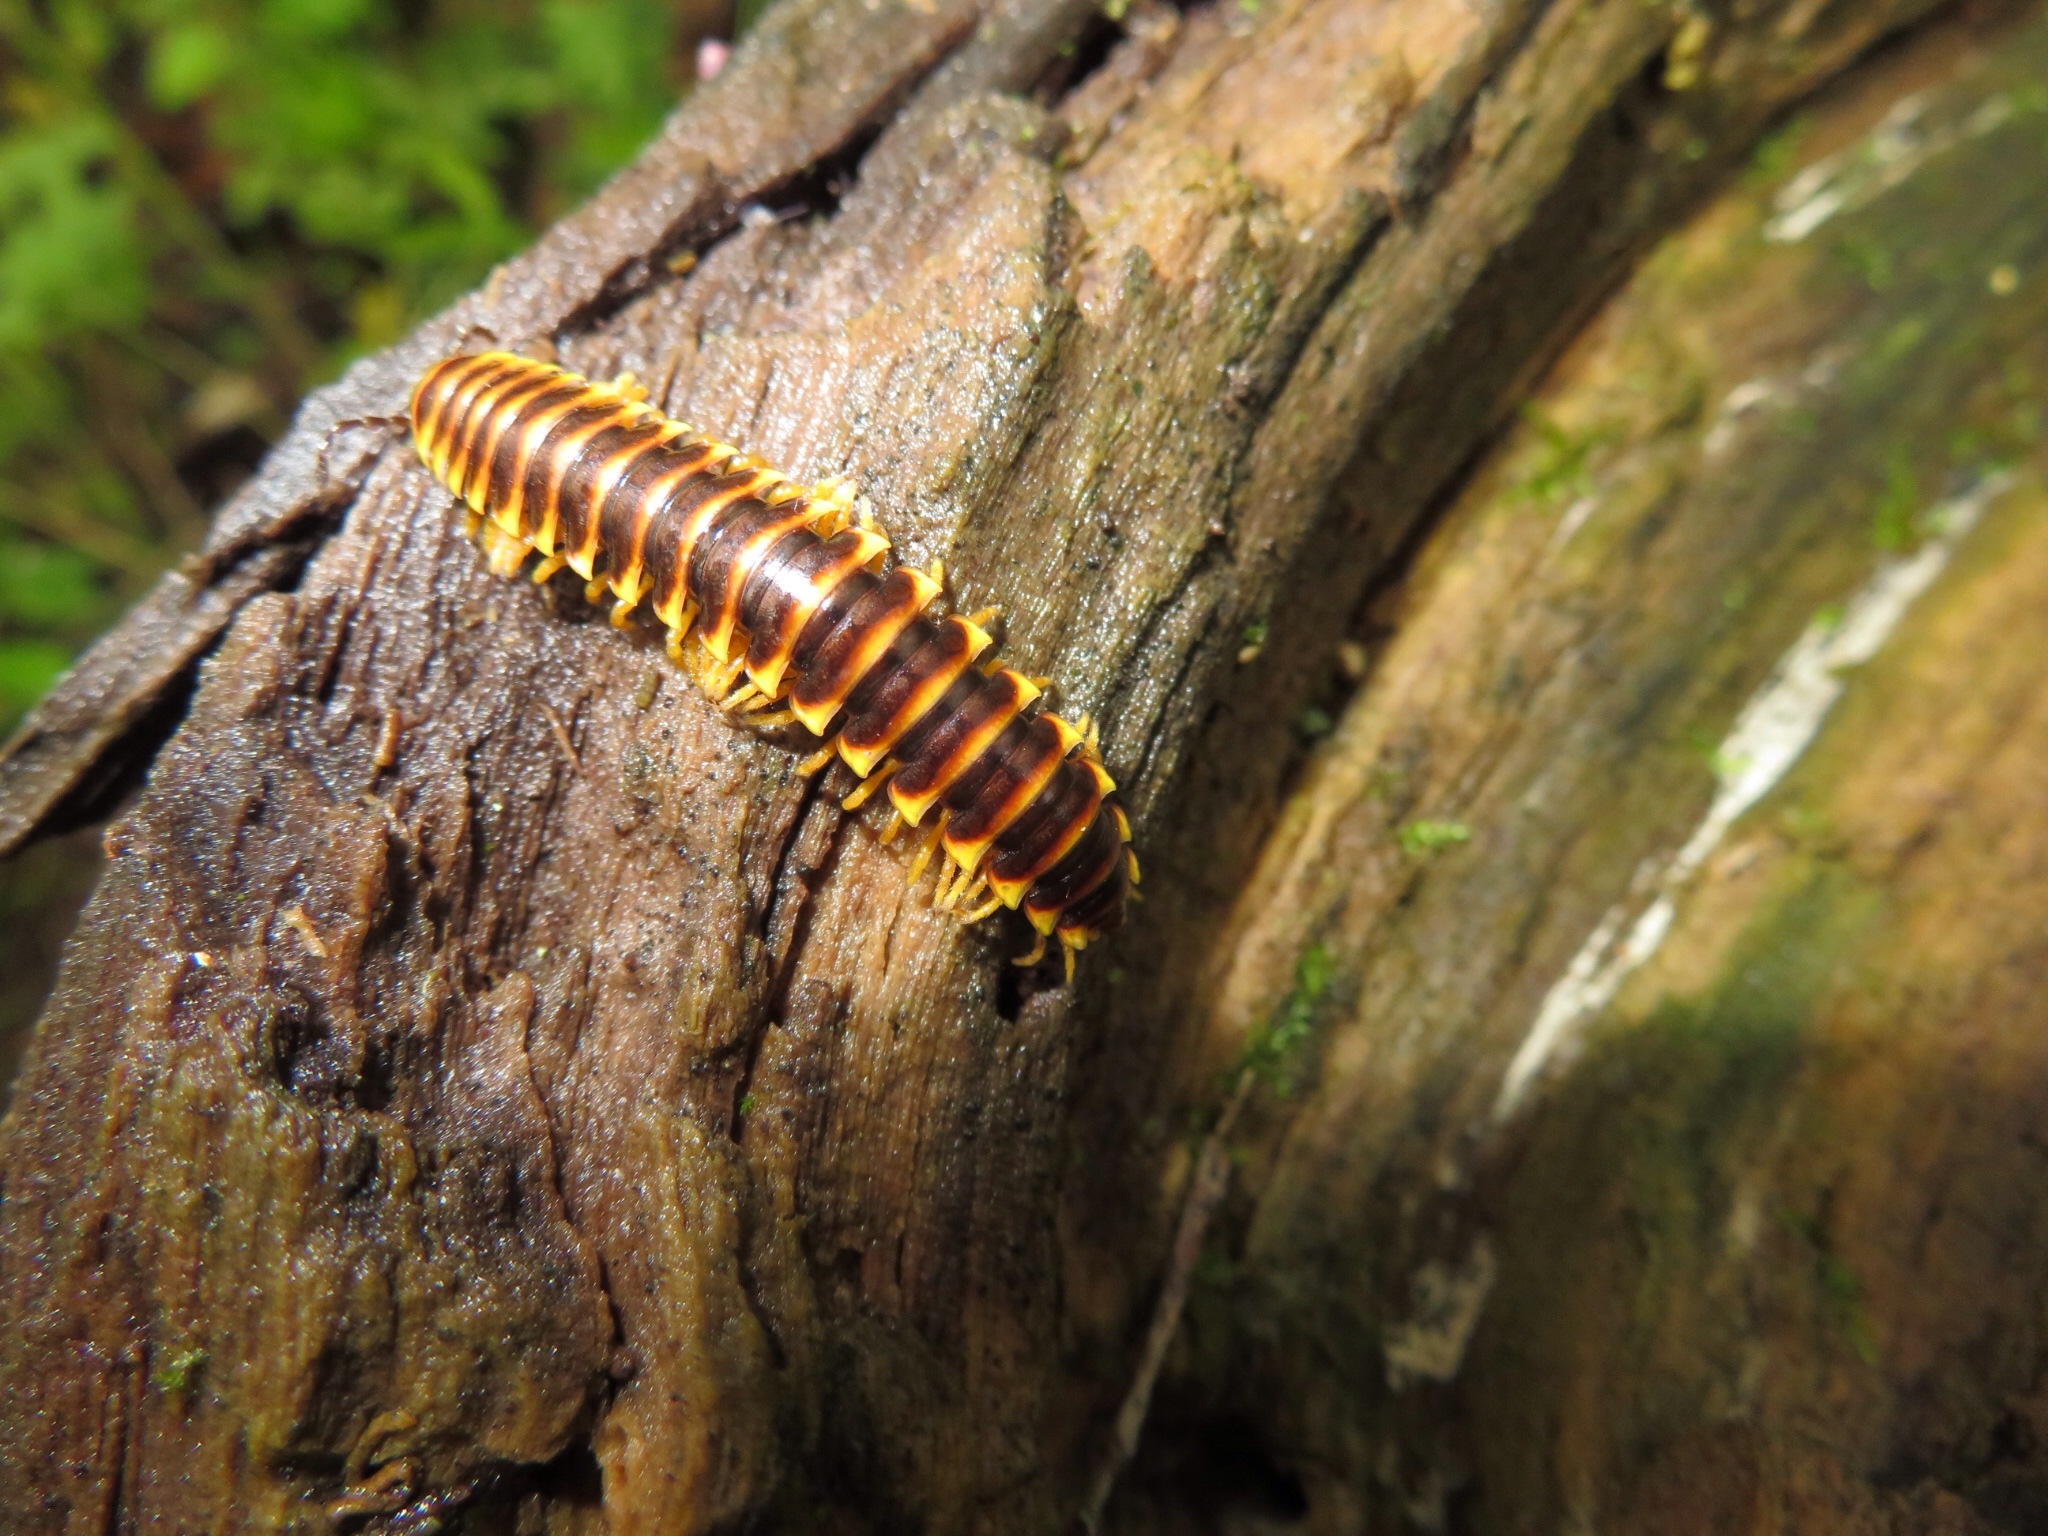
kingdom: Animalia
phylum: Arthropoda
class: Diplopoda
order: Polydesmida
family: Xystodesmidae
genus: Pleuroloma
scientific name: Pleuroloma flavipes
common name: Yellow-legged pleuroloma
